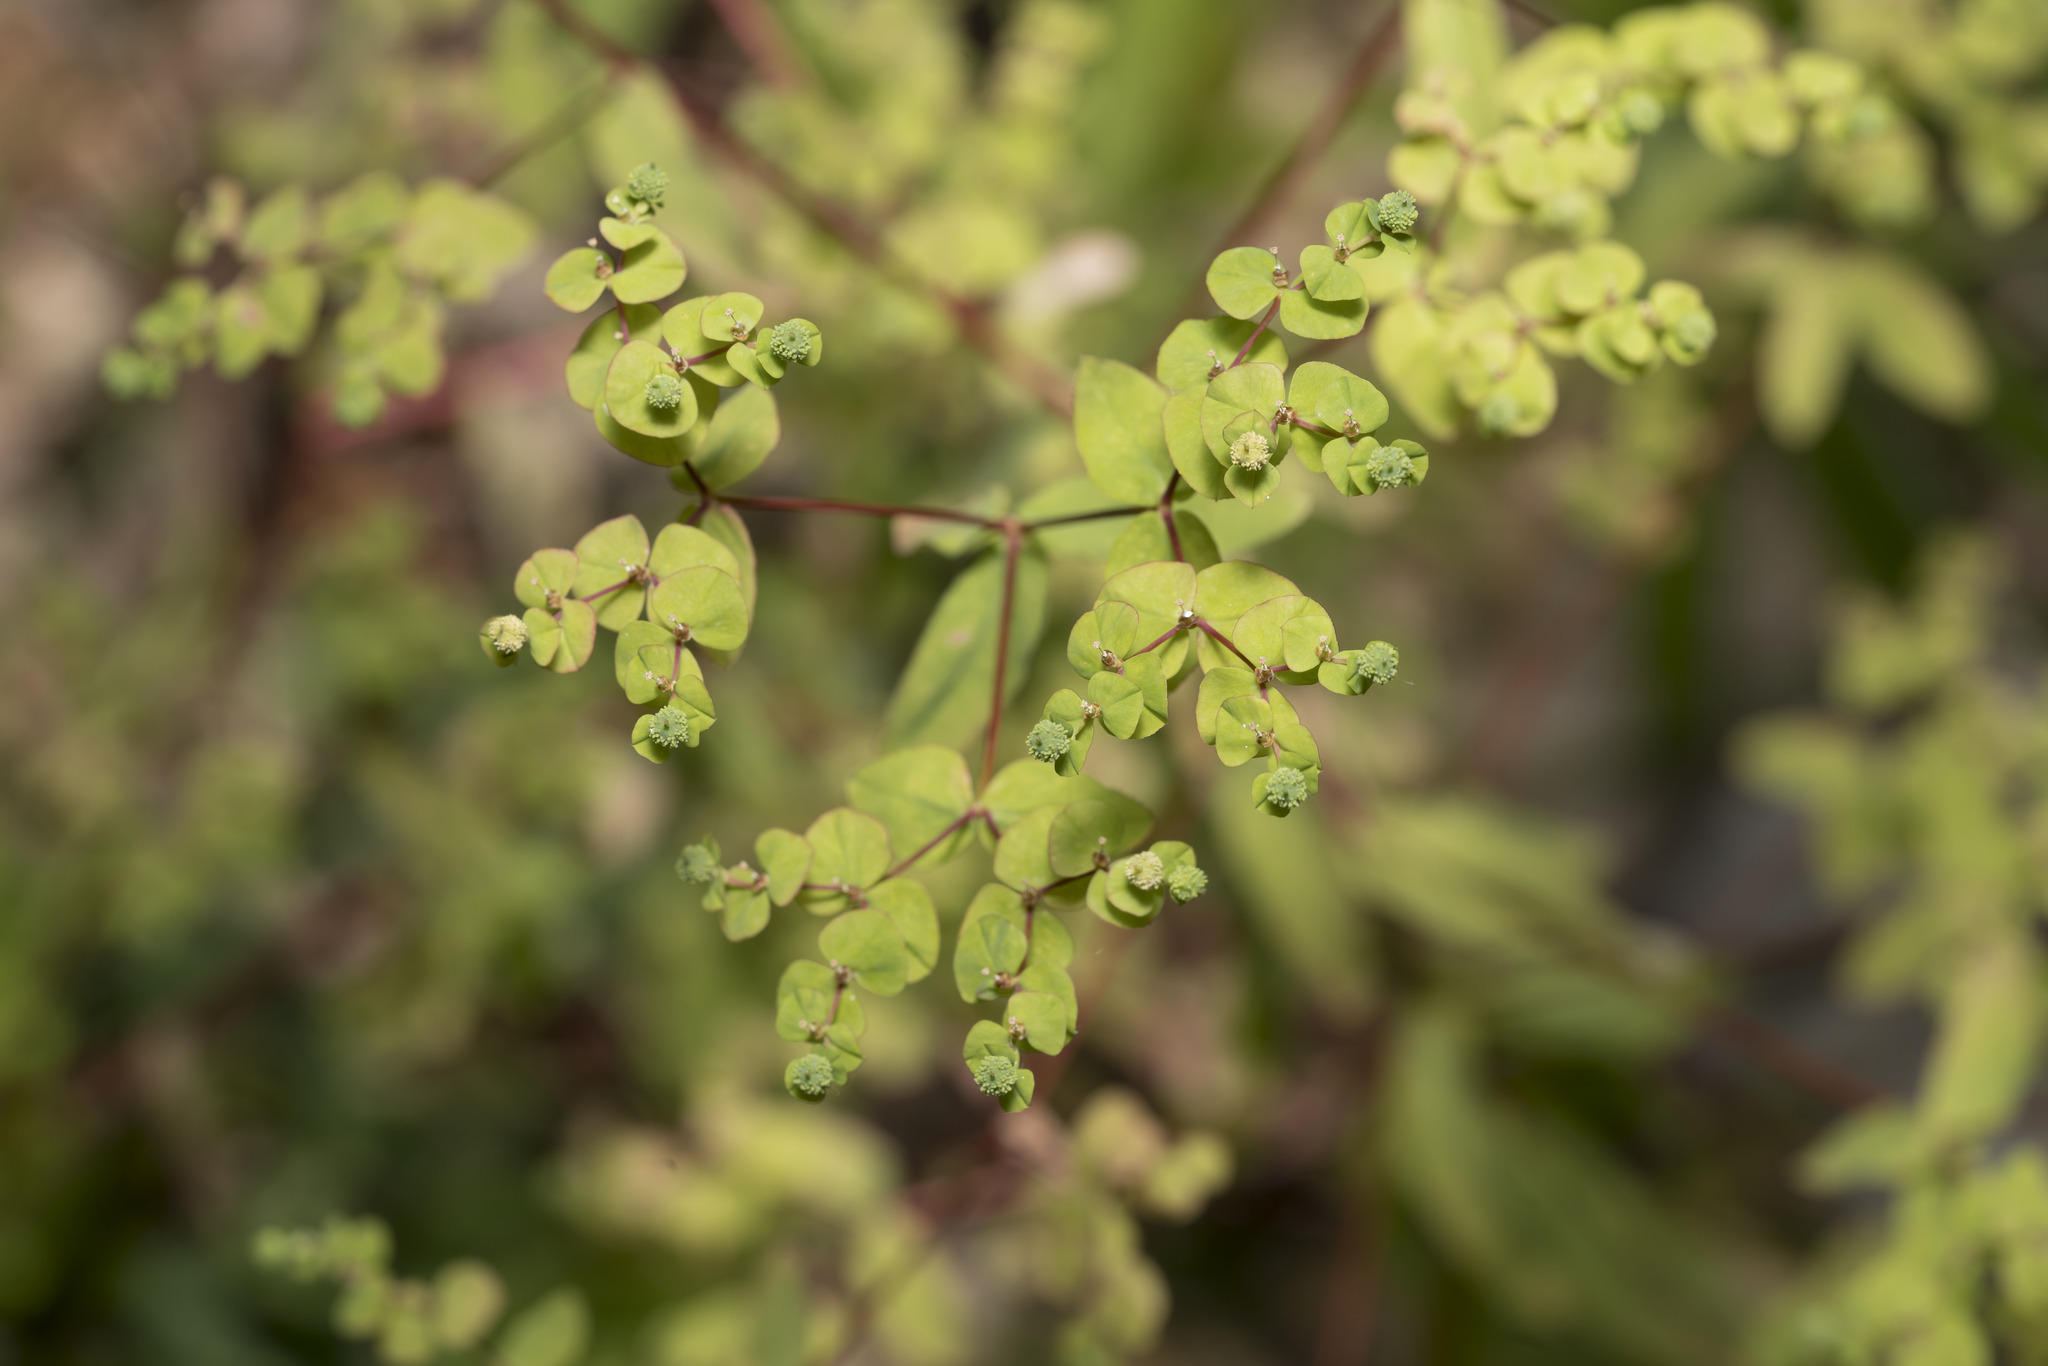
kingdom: Plantae
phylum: Tracheophyta
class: Magnoliopsida
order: Malpighiales
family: Euphorbiaceae
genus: Euphorbia
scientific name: Euphorbia stricta
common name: Upright spurge
